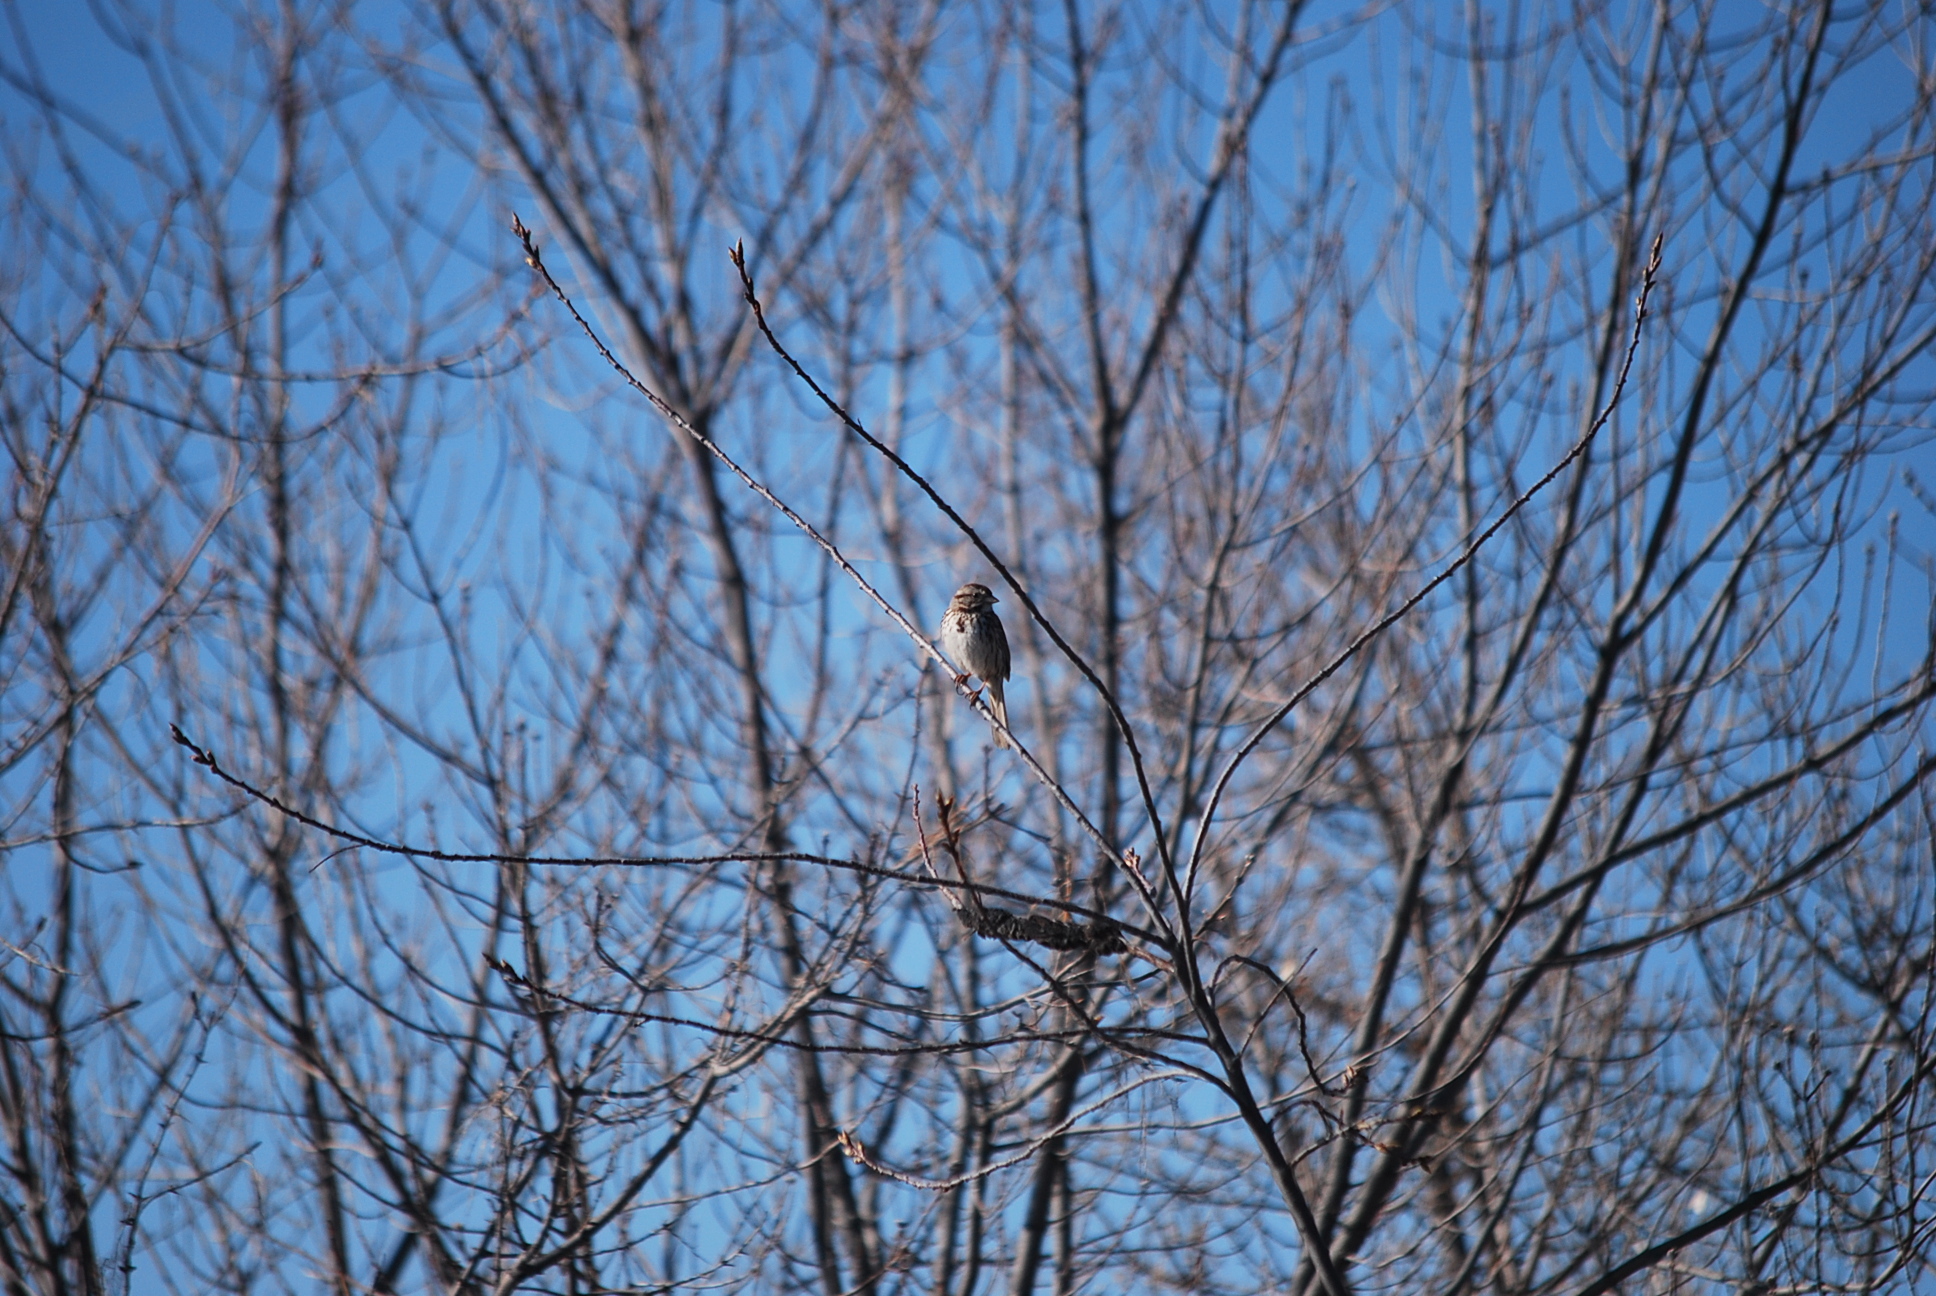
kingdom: Animalia
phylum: Chordata
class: Aves
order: Passeriformes
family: Passerellidae
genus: Melospiza
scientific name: Melospiza melodia
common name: Song sparrow
